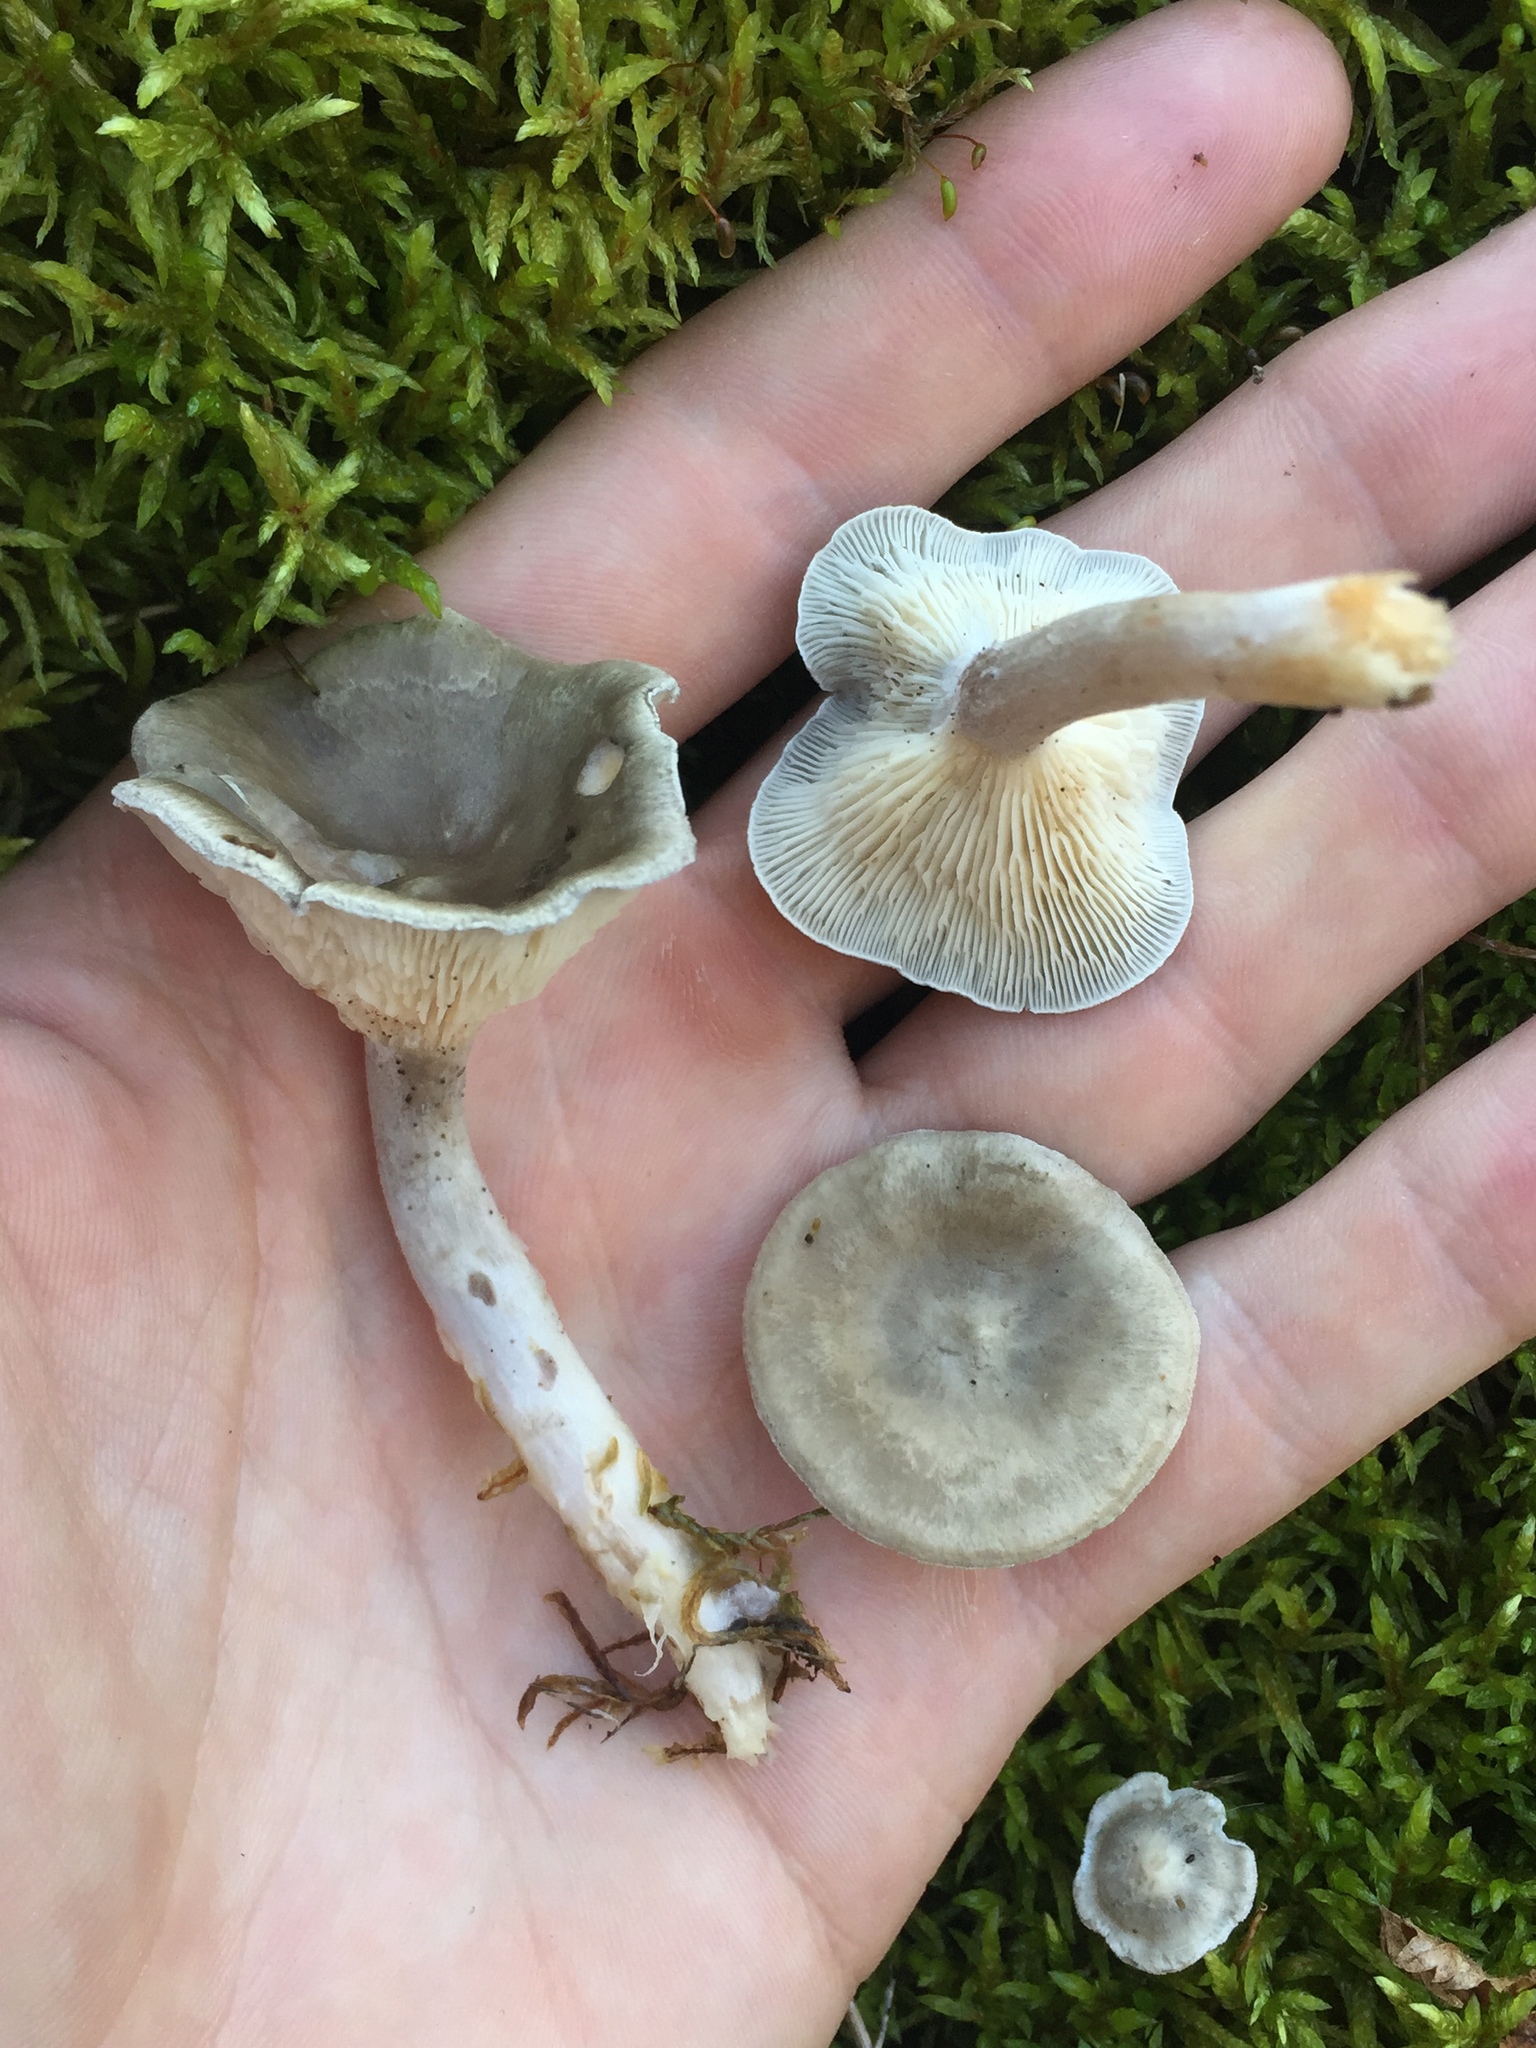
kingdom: Fungi
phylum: Basidiomycota
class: Agaricomycetes
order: Agaricales
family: Hygrophoraceae
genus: Cantharellula
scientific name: Cantharellula umbonata
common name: The humpback
